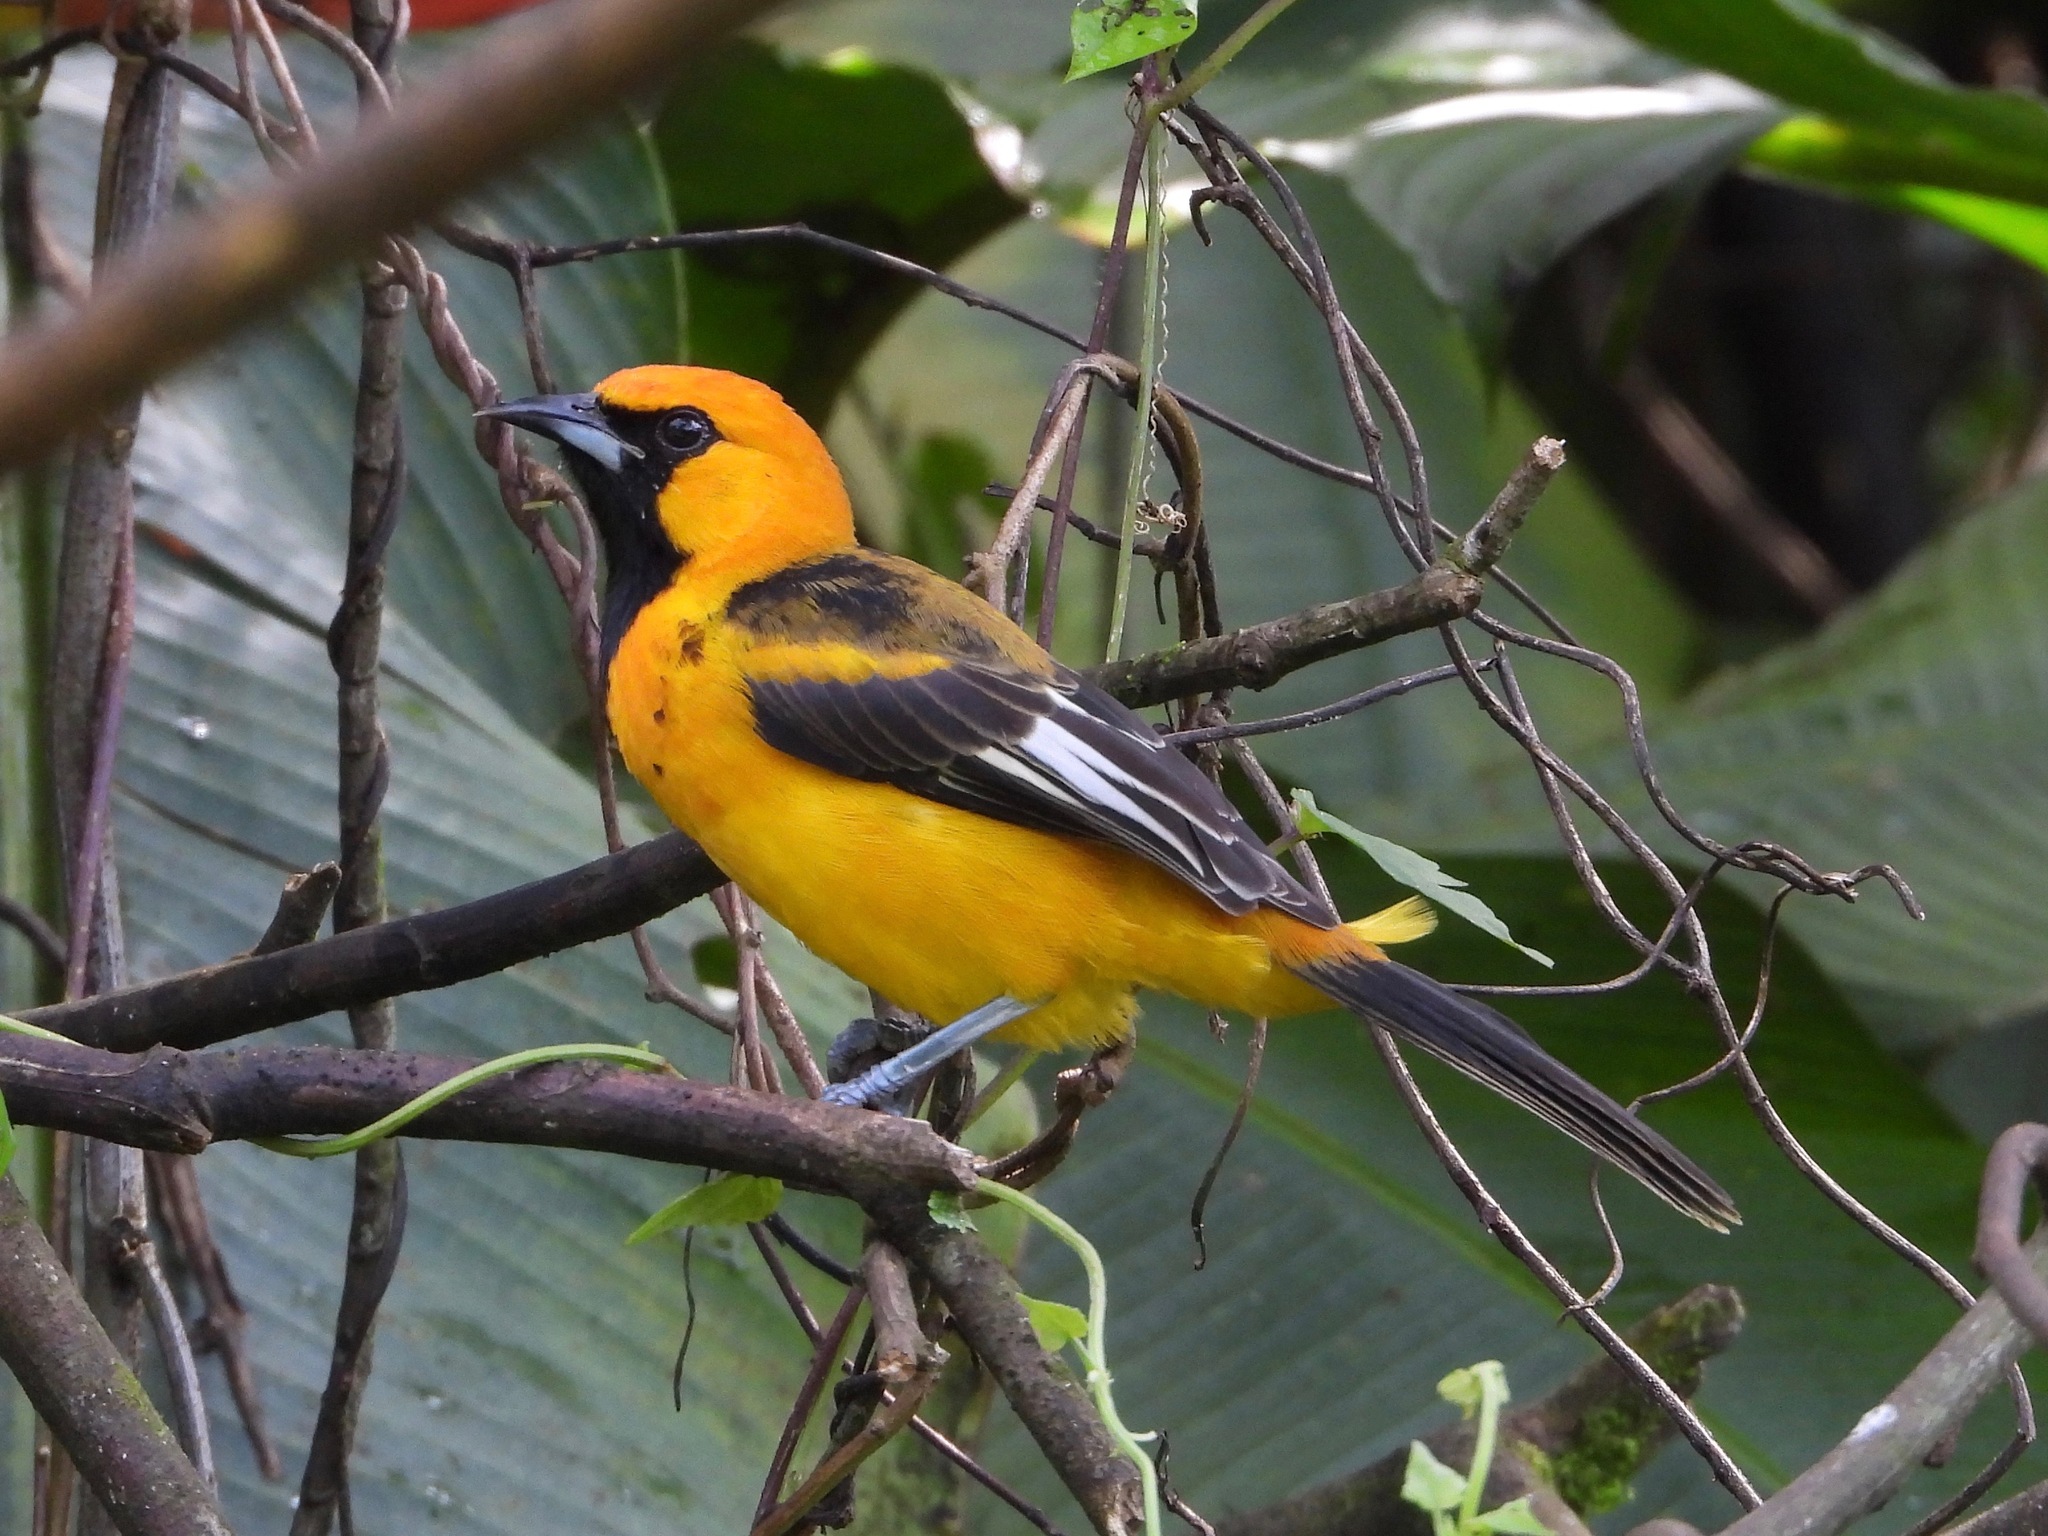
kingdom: Animalia
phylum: Chordata
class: Aves
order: Passeriformes
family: Icteridae
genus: Icterus
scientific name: Icterus pectoralis
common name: Spot-breasted oriole
